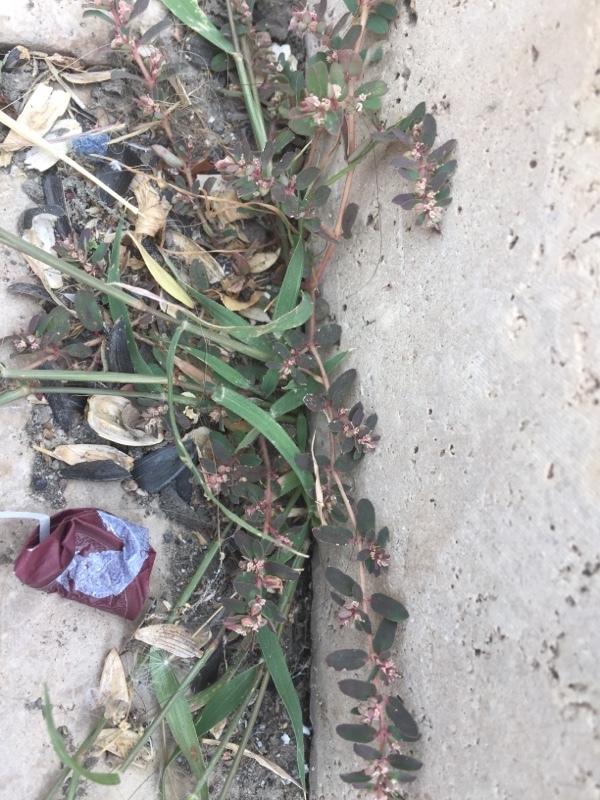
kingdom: Plantae
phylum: Tracheophyta
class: Magnoliopsida
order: Malpighiales
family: Euphorbiaceae
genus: Euphorbia
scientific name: Euphorbia maculata
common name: Spotted spurge
